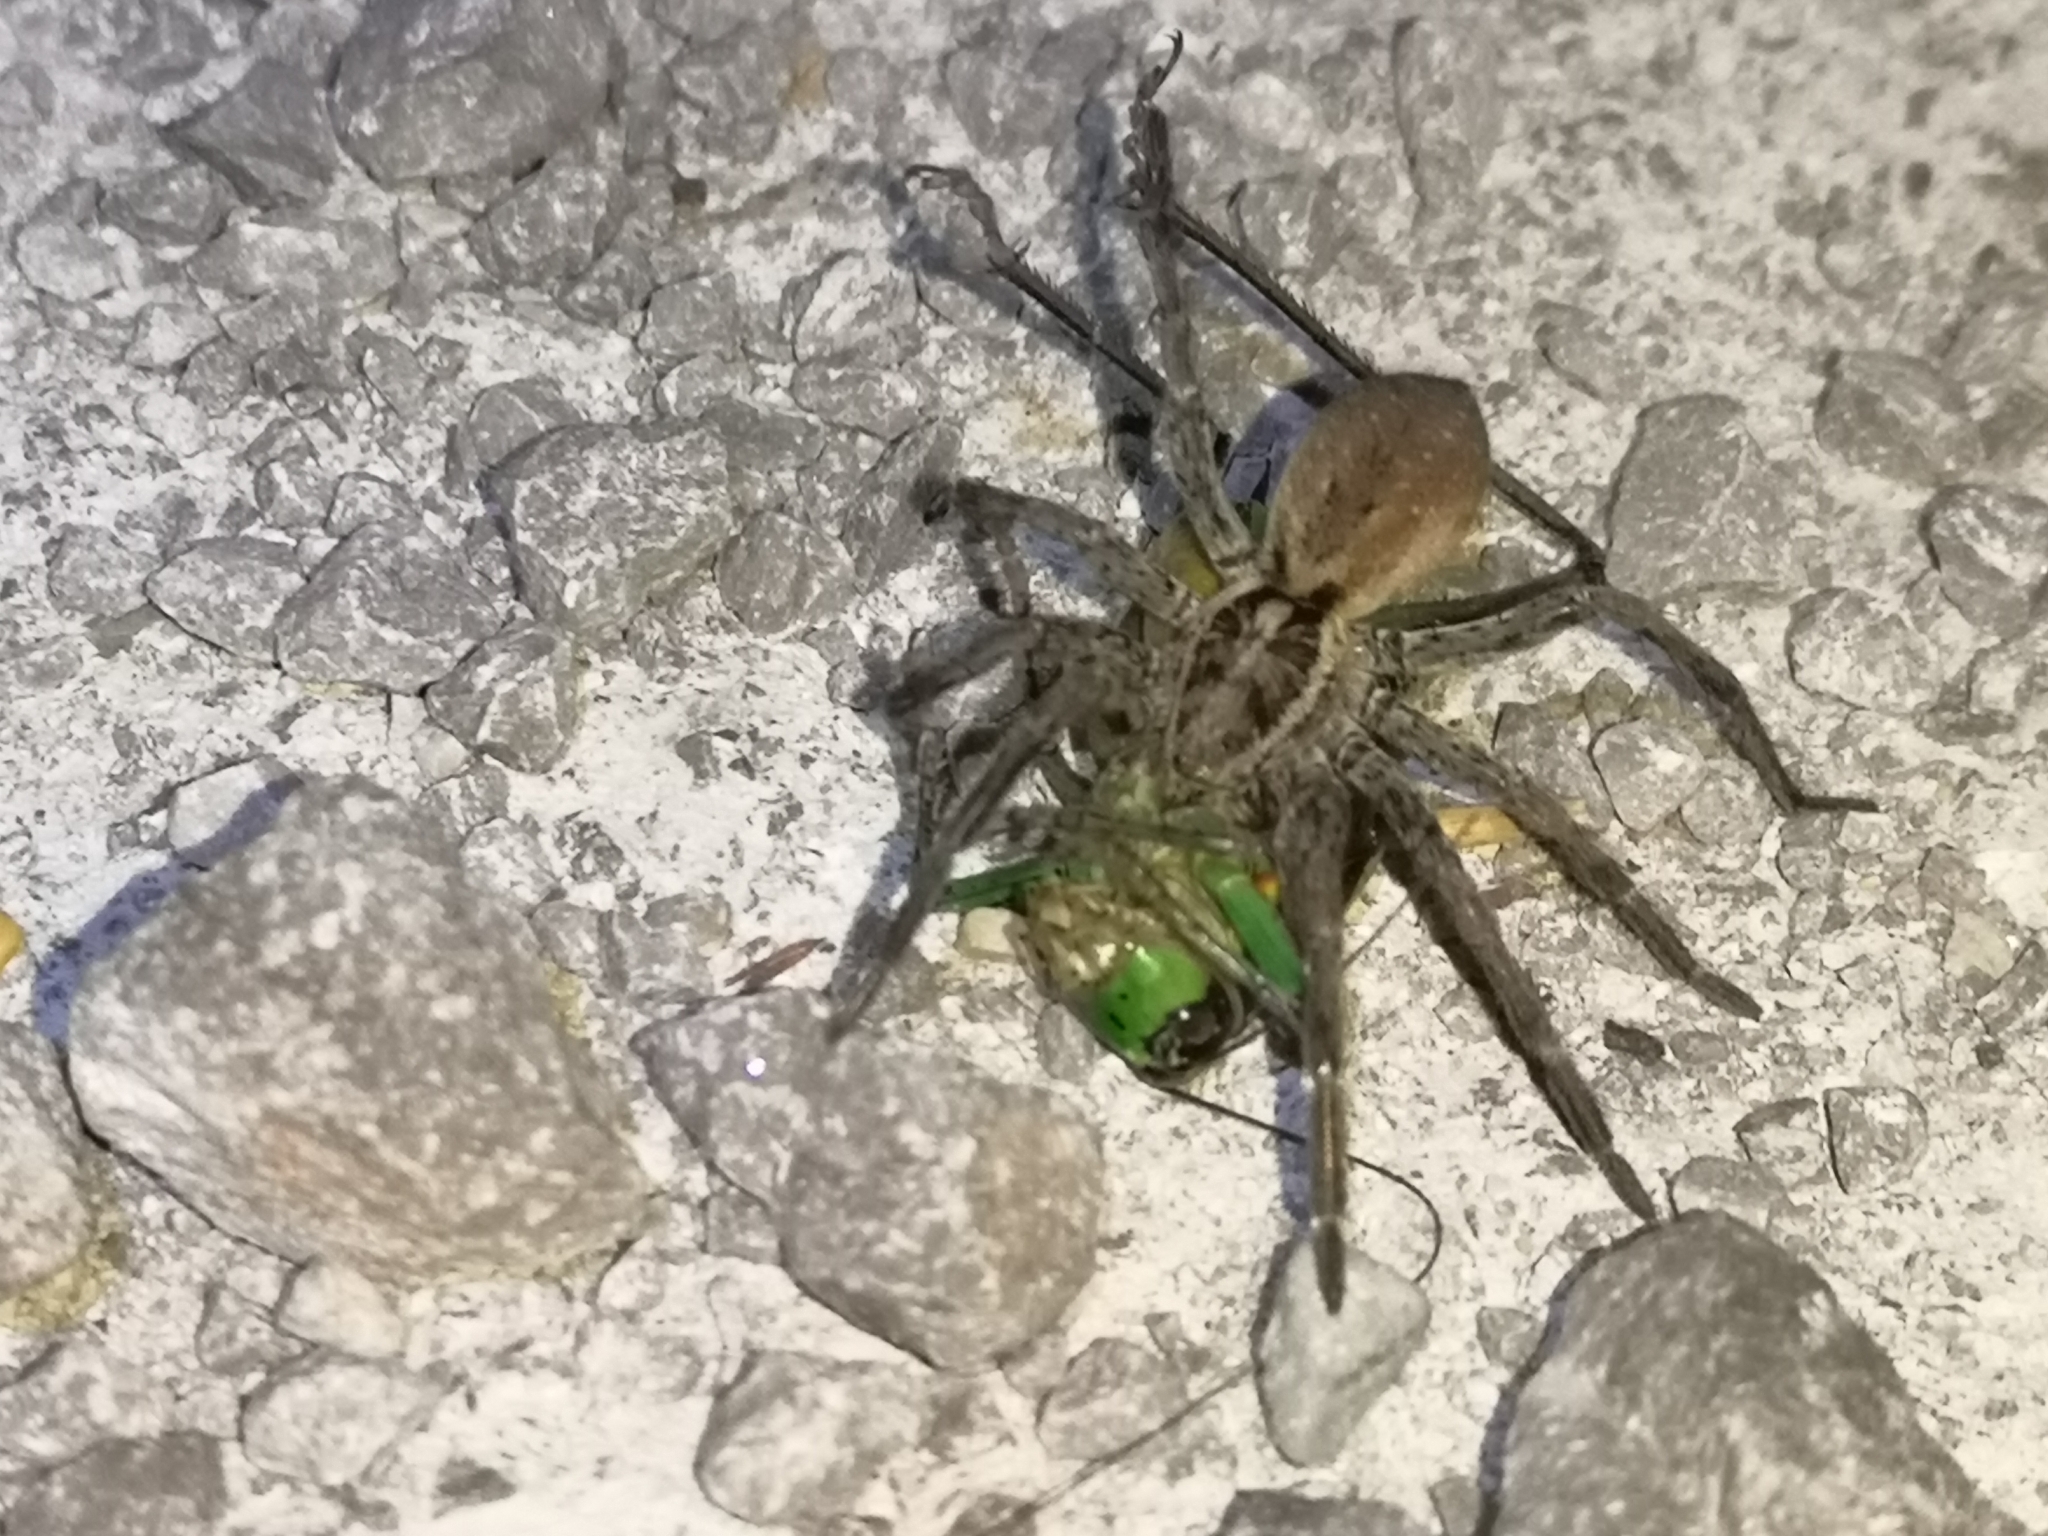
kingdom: Animalia
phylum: Arthropoda
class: Arachnida
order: Araneae
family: Lycosidae
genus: Hogna
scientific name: Hogna radiata
